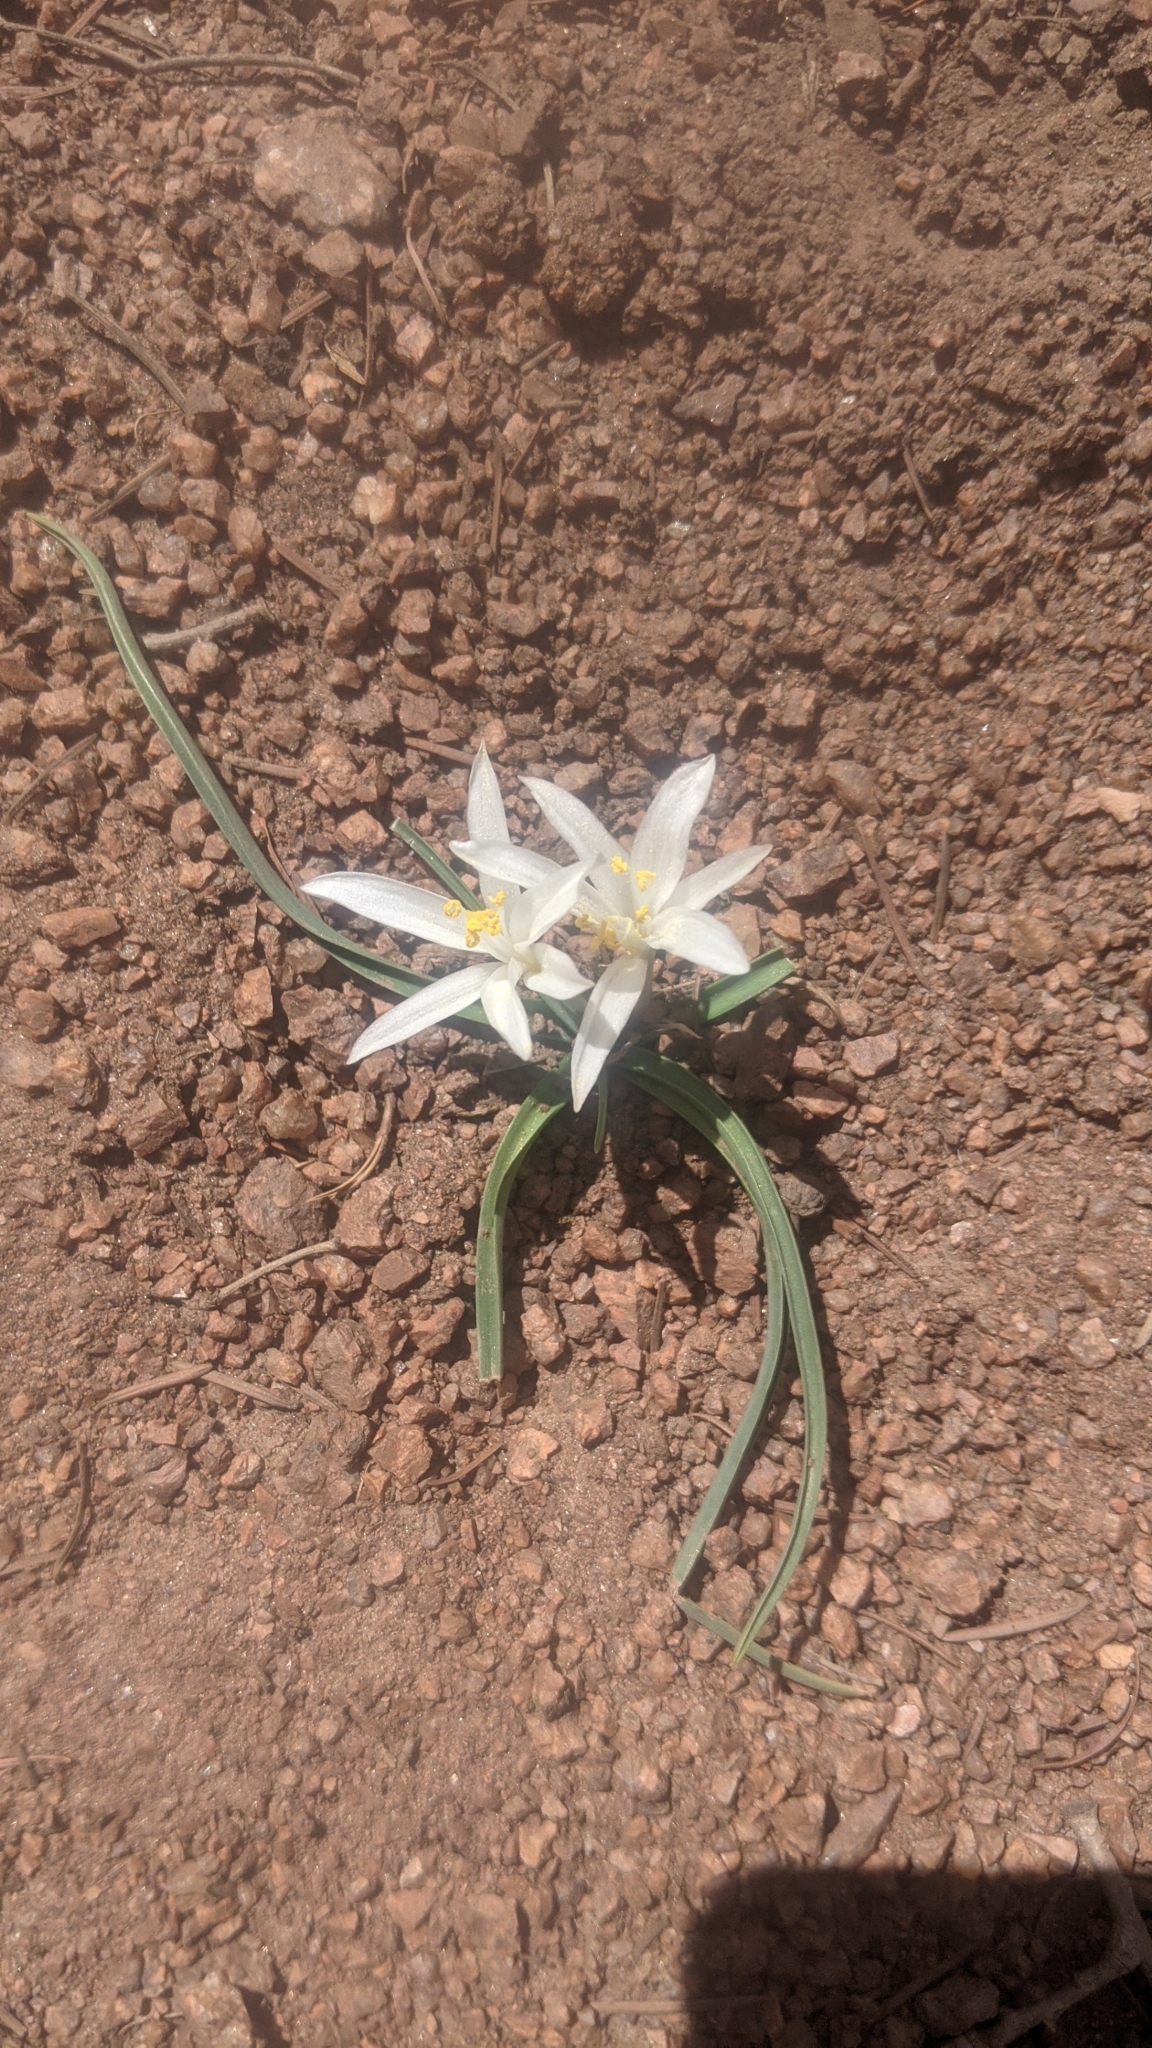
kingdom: Plantae
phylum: Tracheophyta
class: Liliopsida
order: Asparagales
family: Asparagaceae
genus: Leucocrinum
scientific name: Leucocrinum montanum
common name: Mountain-lily
